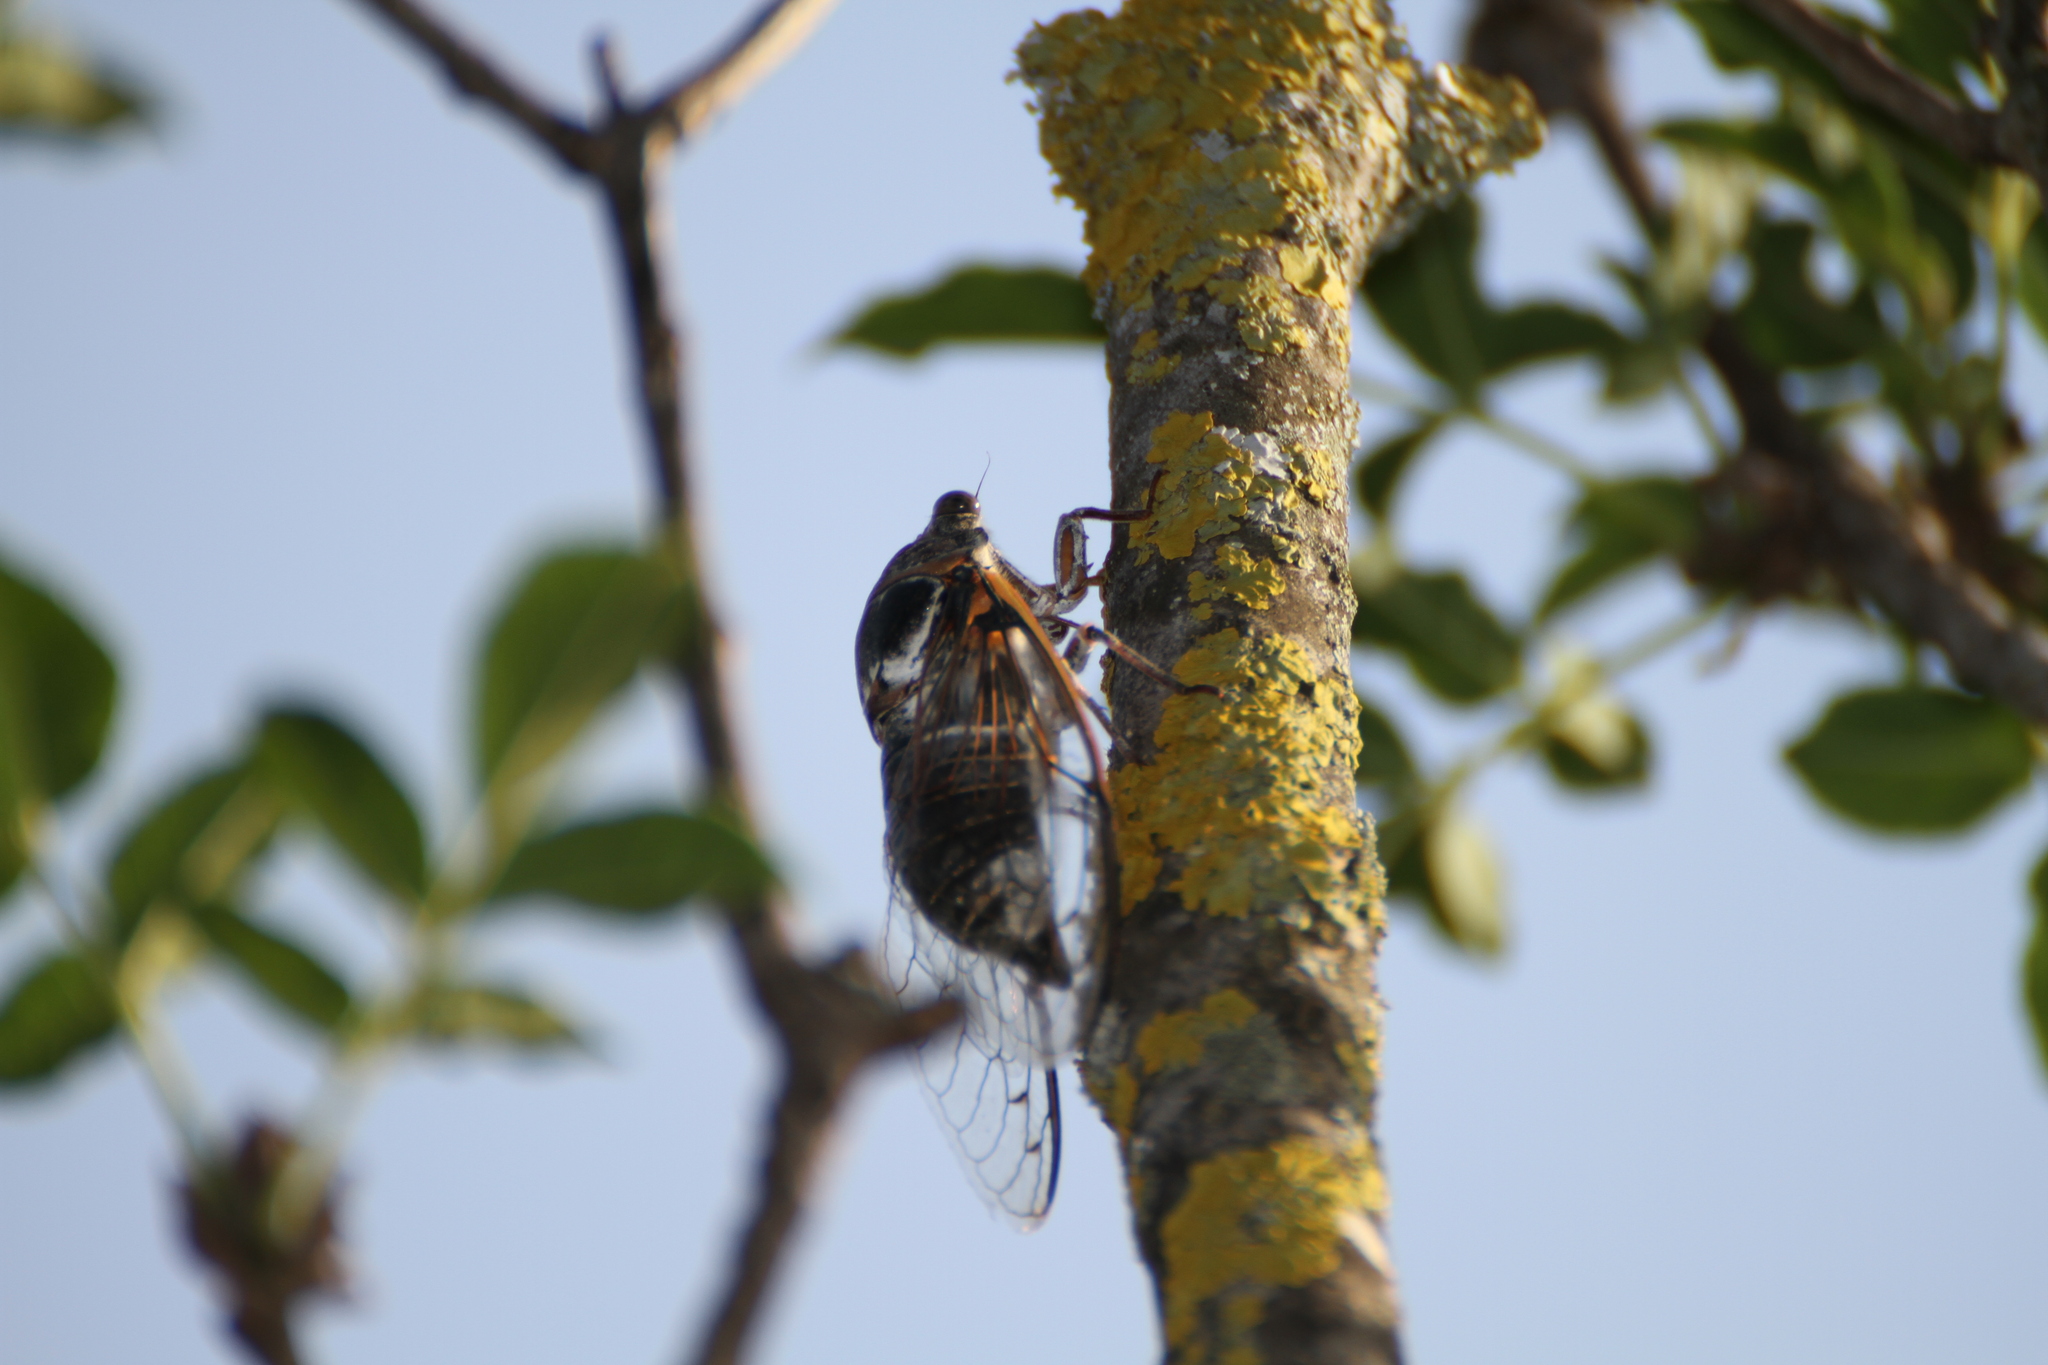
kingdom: Animalia
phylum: Arthropoda
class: Insecta
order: Hemiptera
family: Cicadidae
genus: Lyristes
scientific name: Lyristes plebejus
